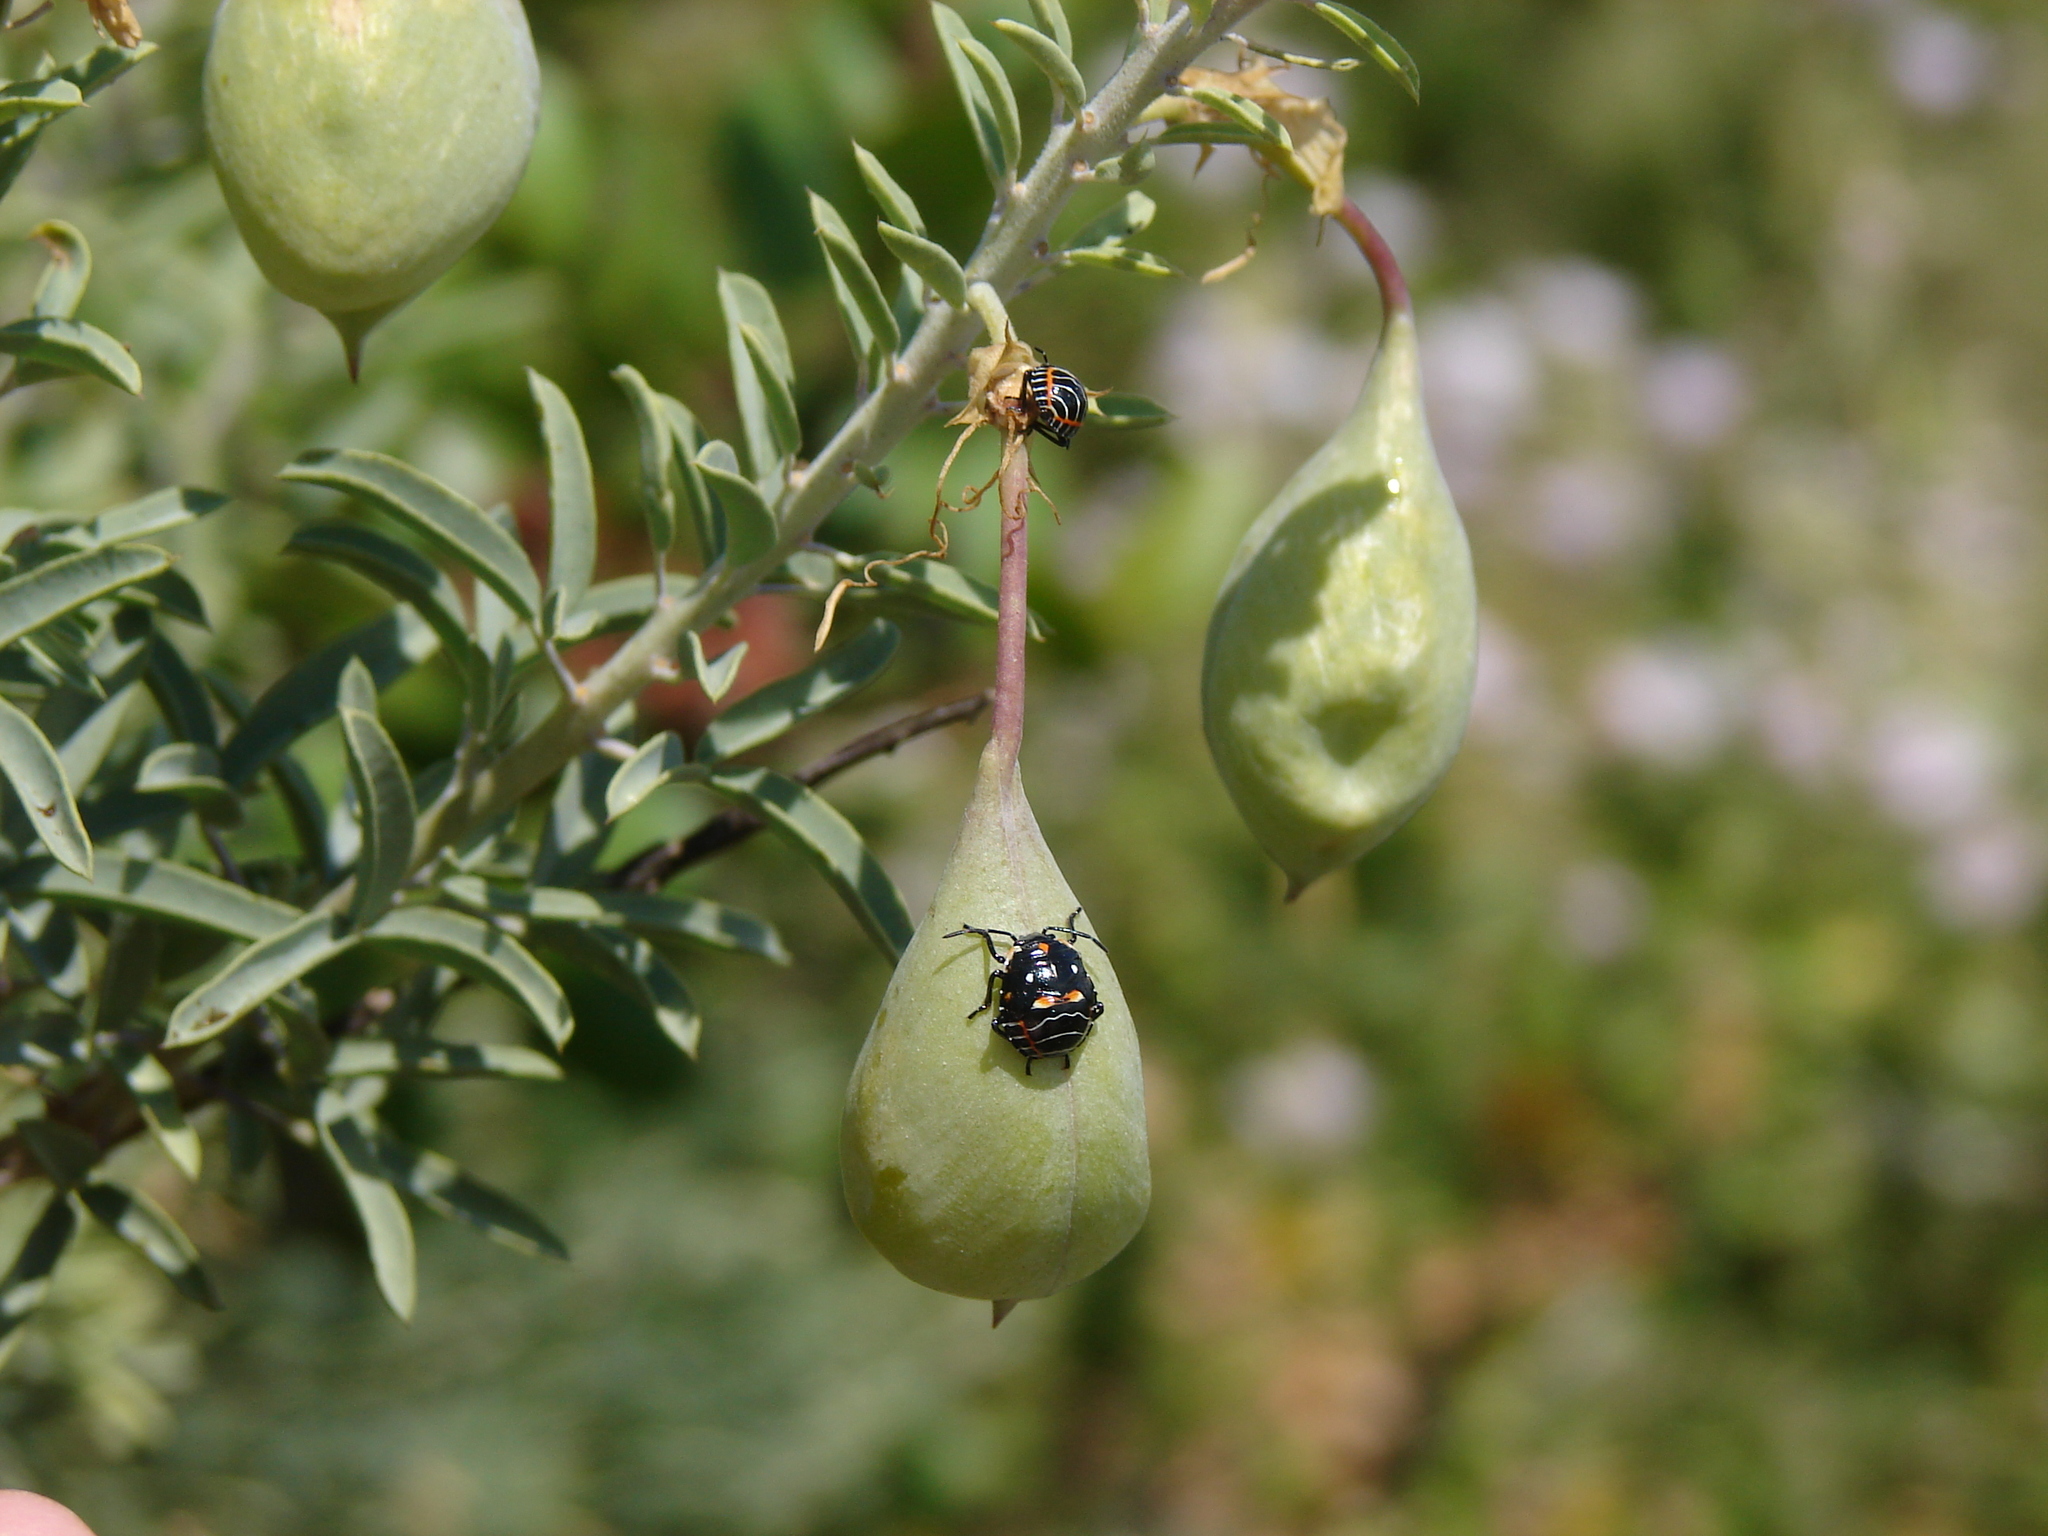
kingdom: Animalia
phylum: Arthropoda
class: Insecta
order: Hemiptera
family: Pentatomidae
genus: Murgantia
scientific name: Murgantia histrionica
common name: Harlequin bug
